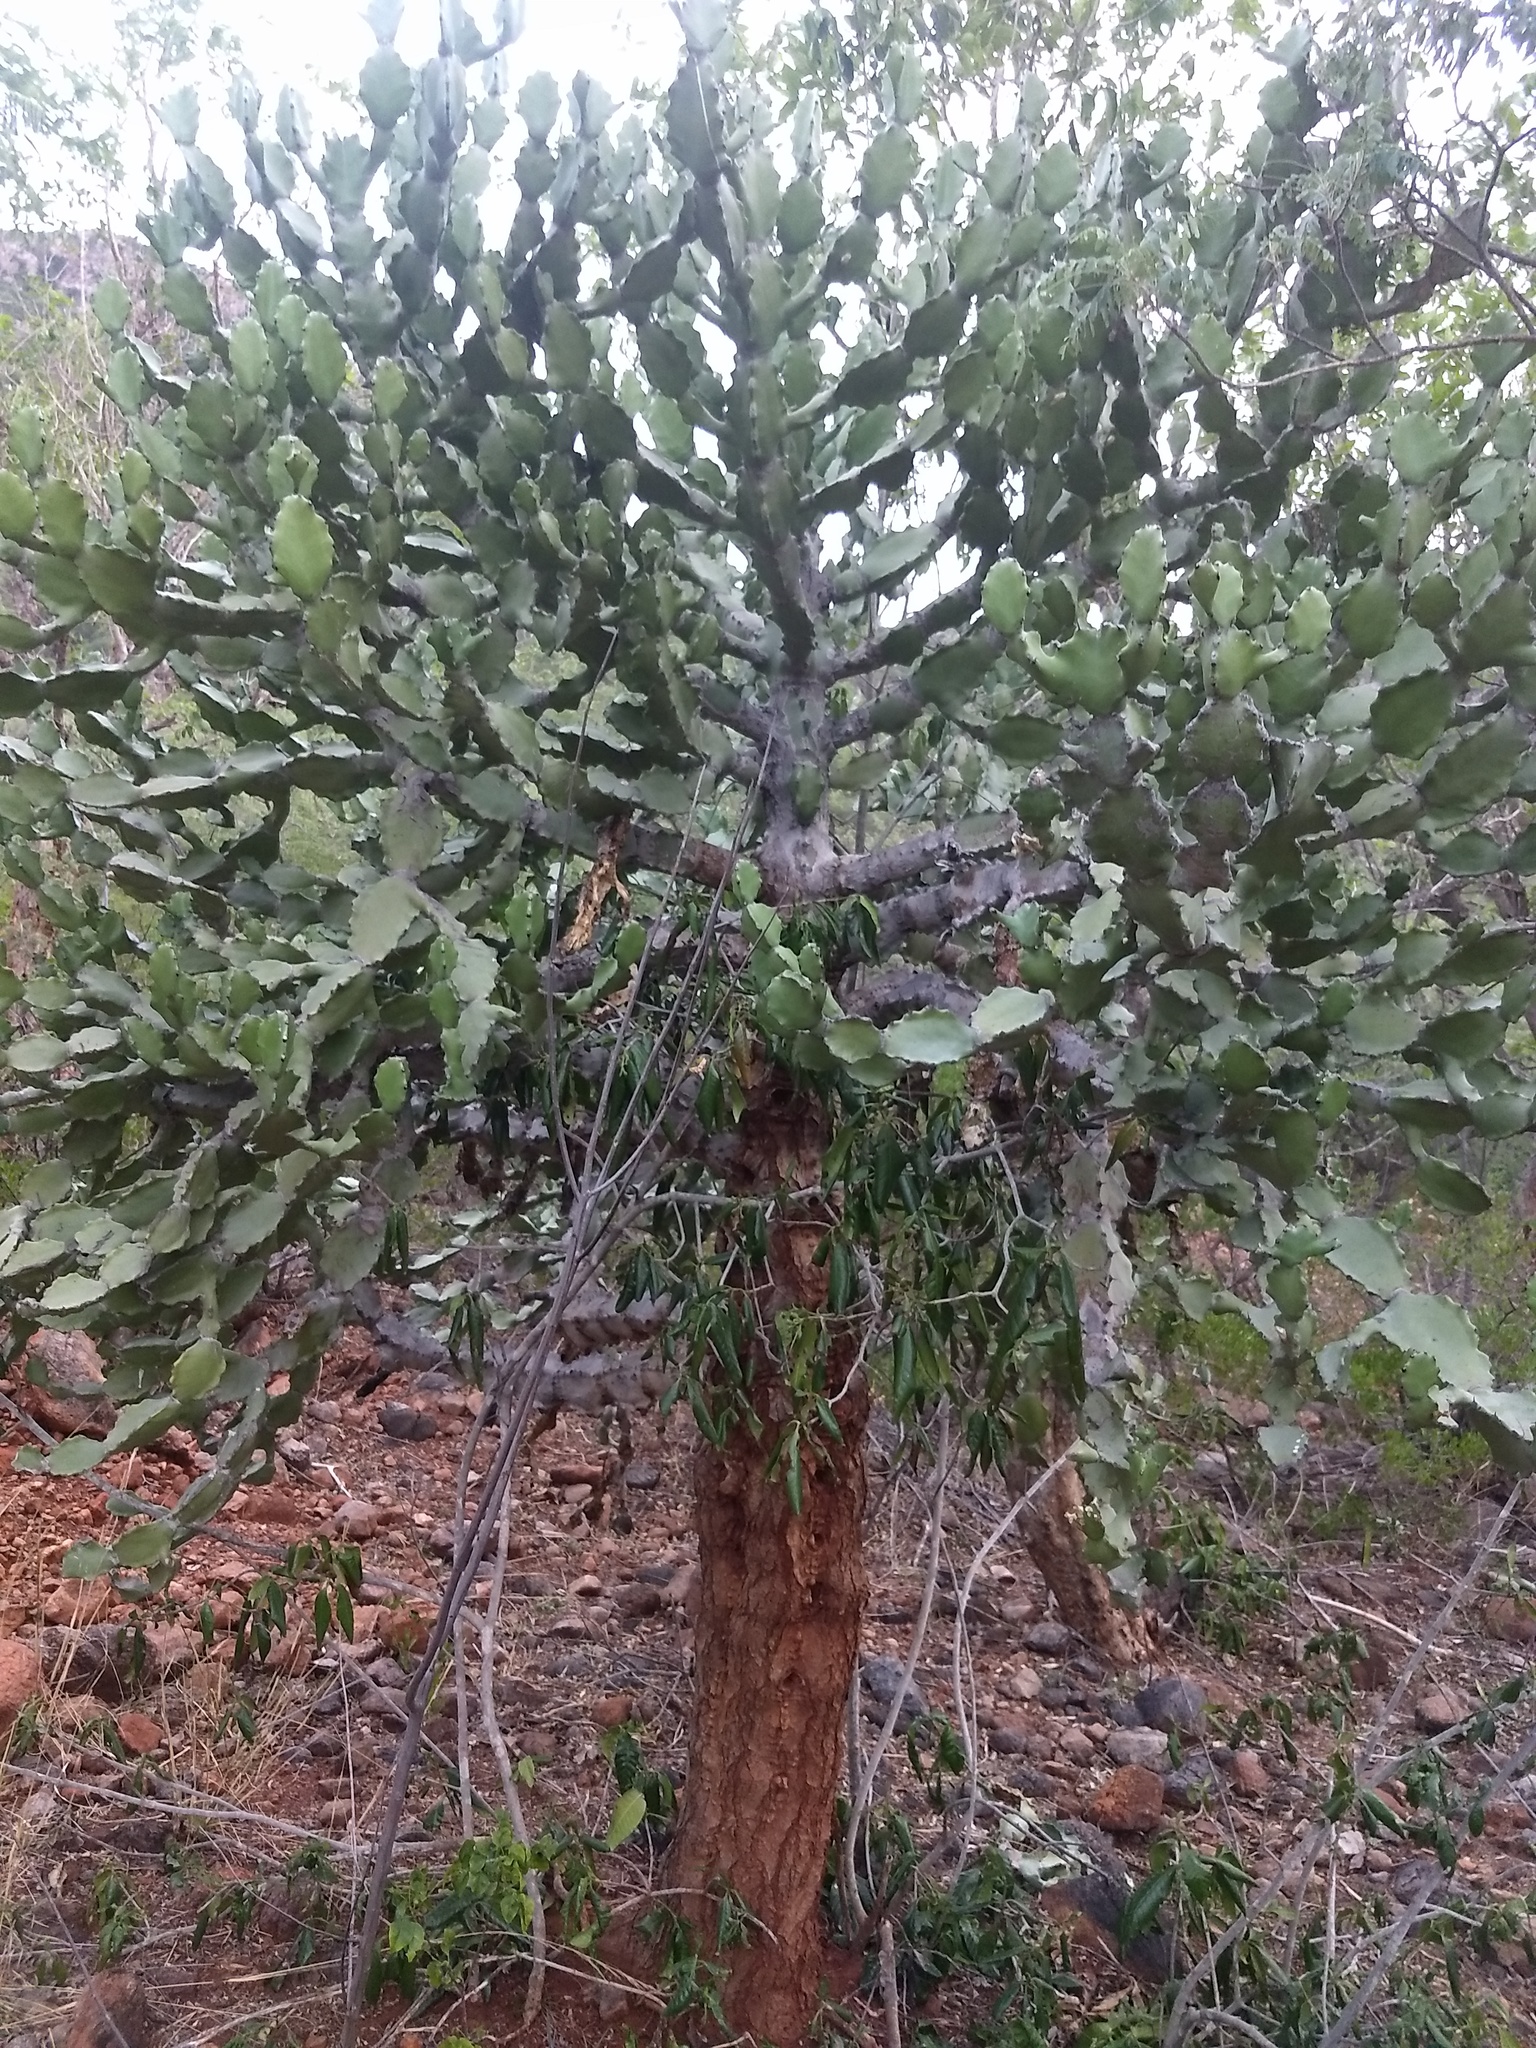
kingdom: Plantae
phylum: Tracheophyta
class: Magnoliopsida
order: Malpighiales
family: Euphorbiaceae
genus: Euphorbia
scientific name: Euphorbia antiquorum
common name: Malayan spurge tree
